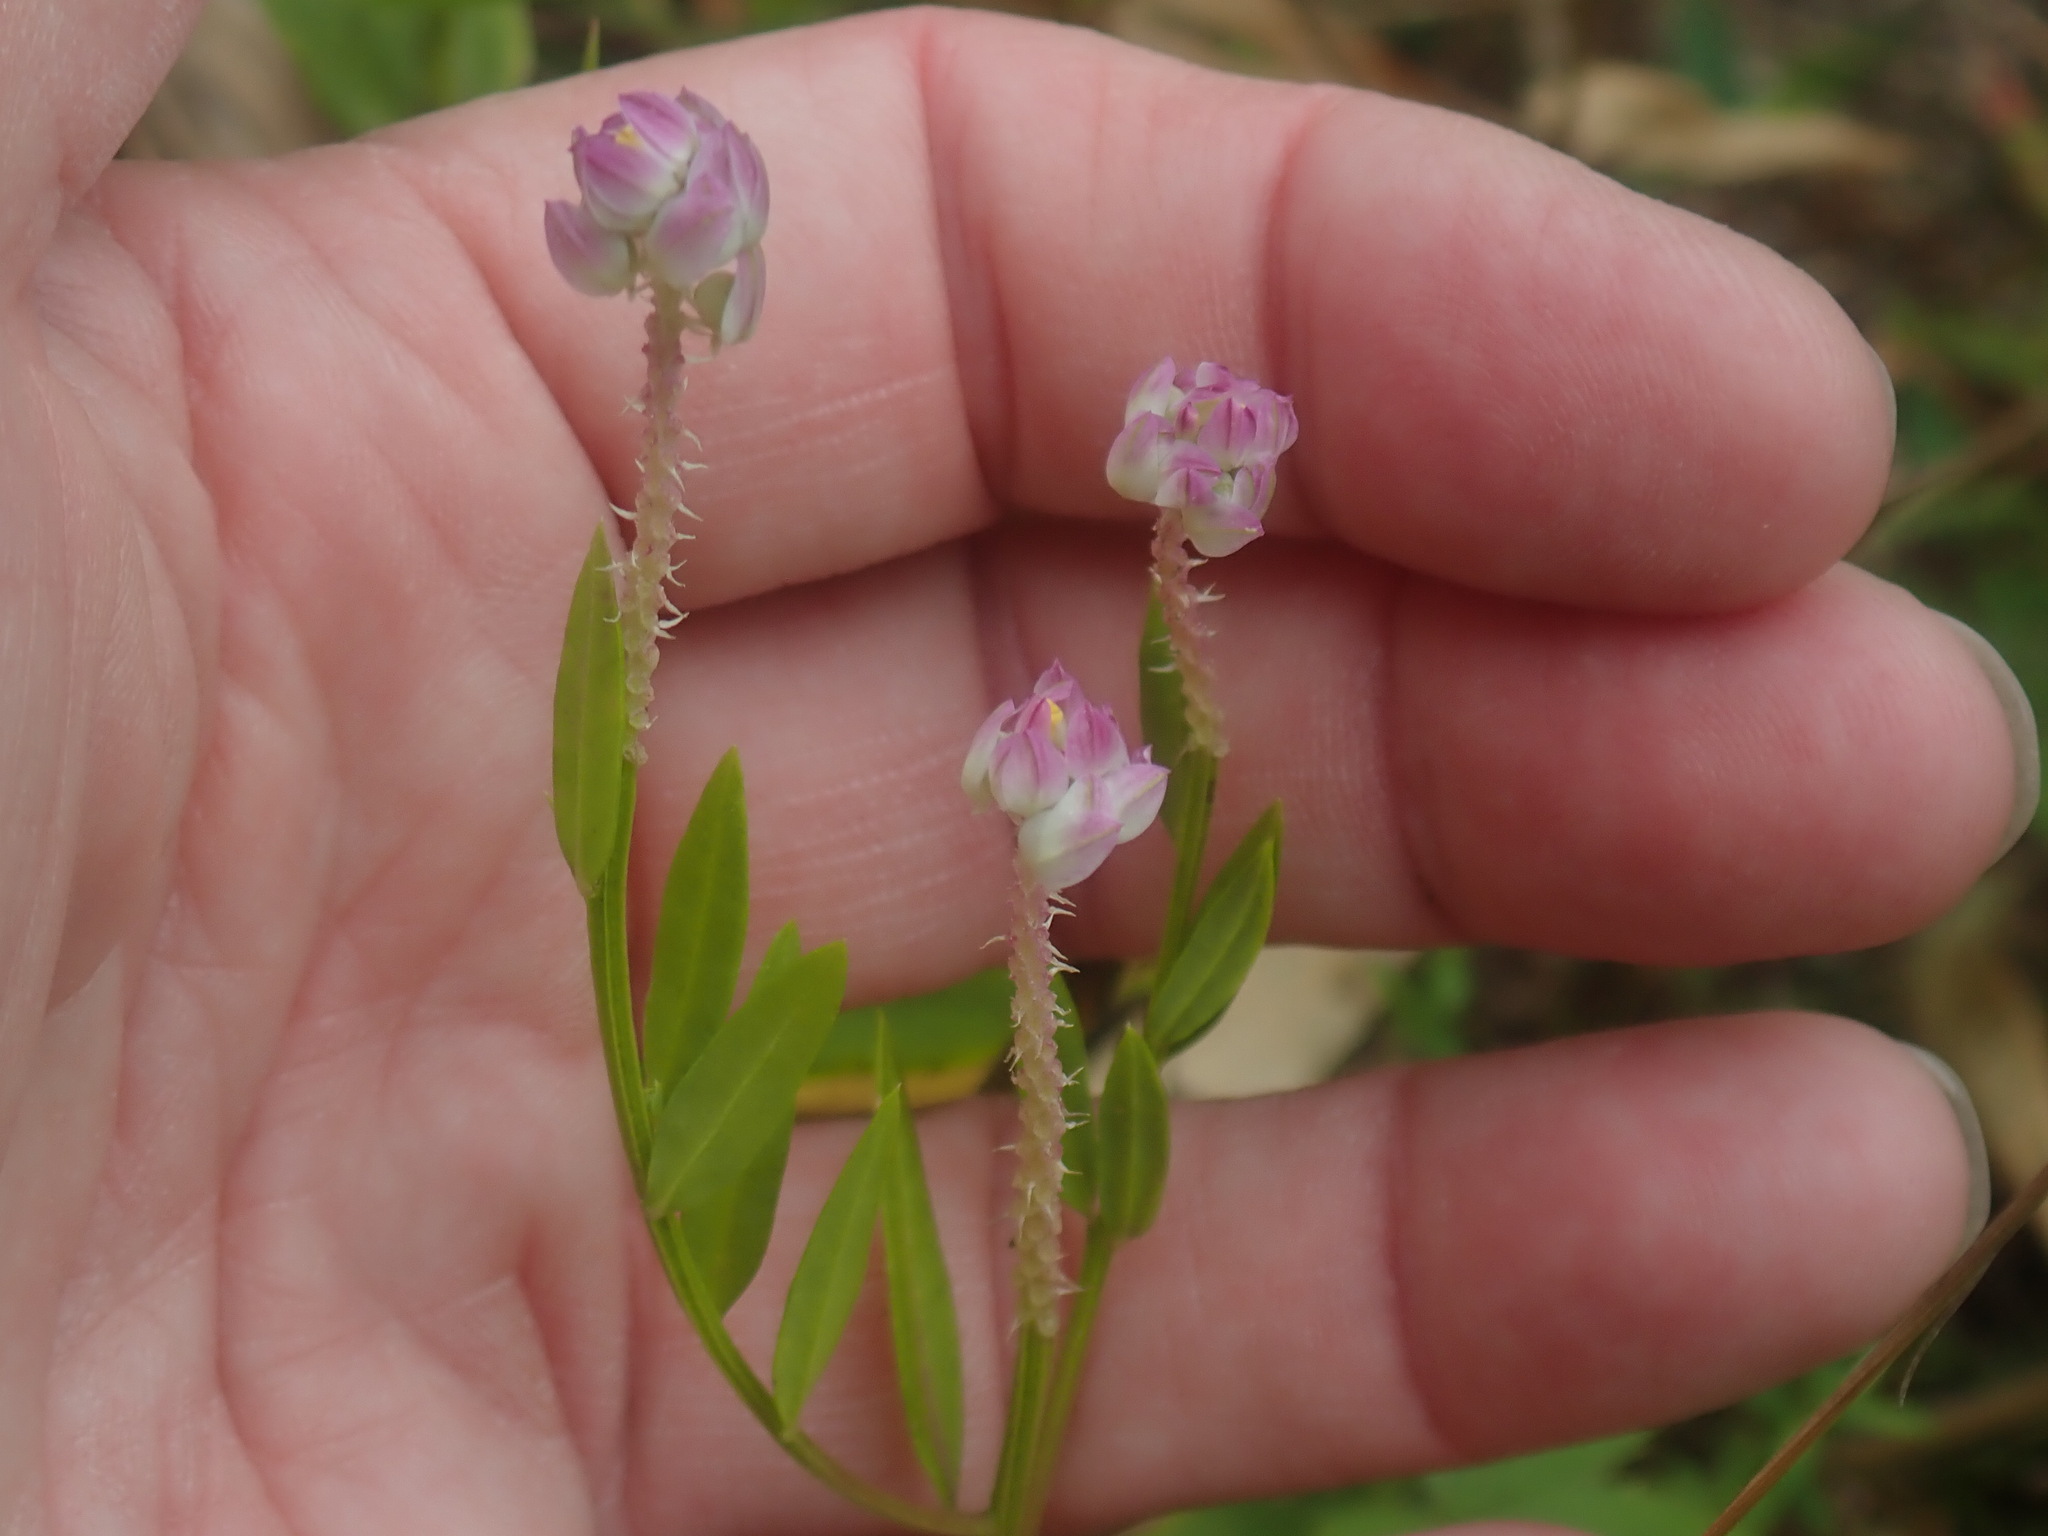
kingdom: Plantae
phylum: Tracheophyta
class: Magnoliopsida
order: Fabales
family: Polygalaceae
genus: Polygala
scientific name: Polygala sanguinea
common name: Blood milkwort
